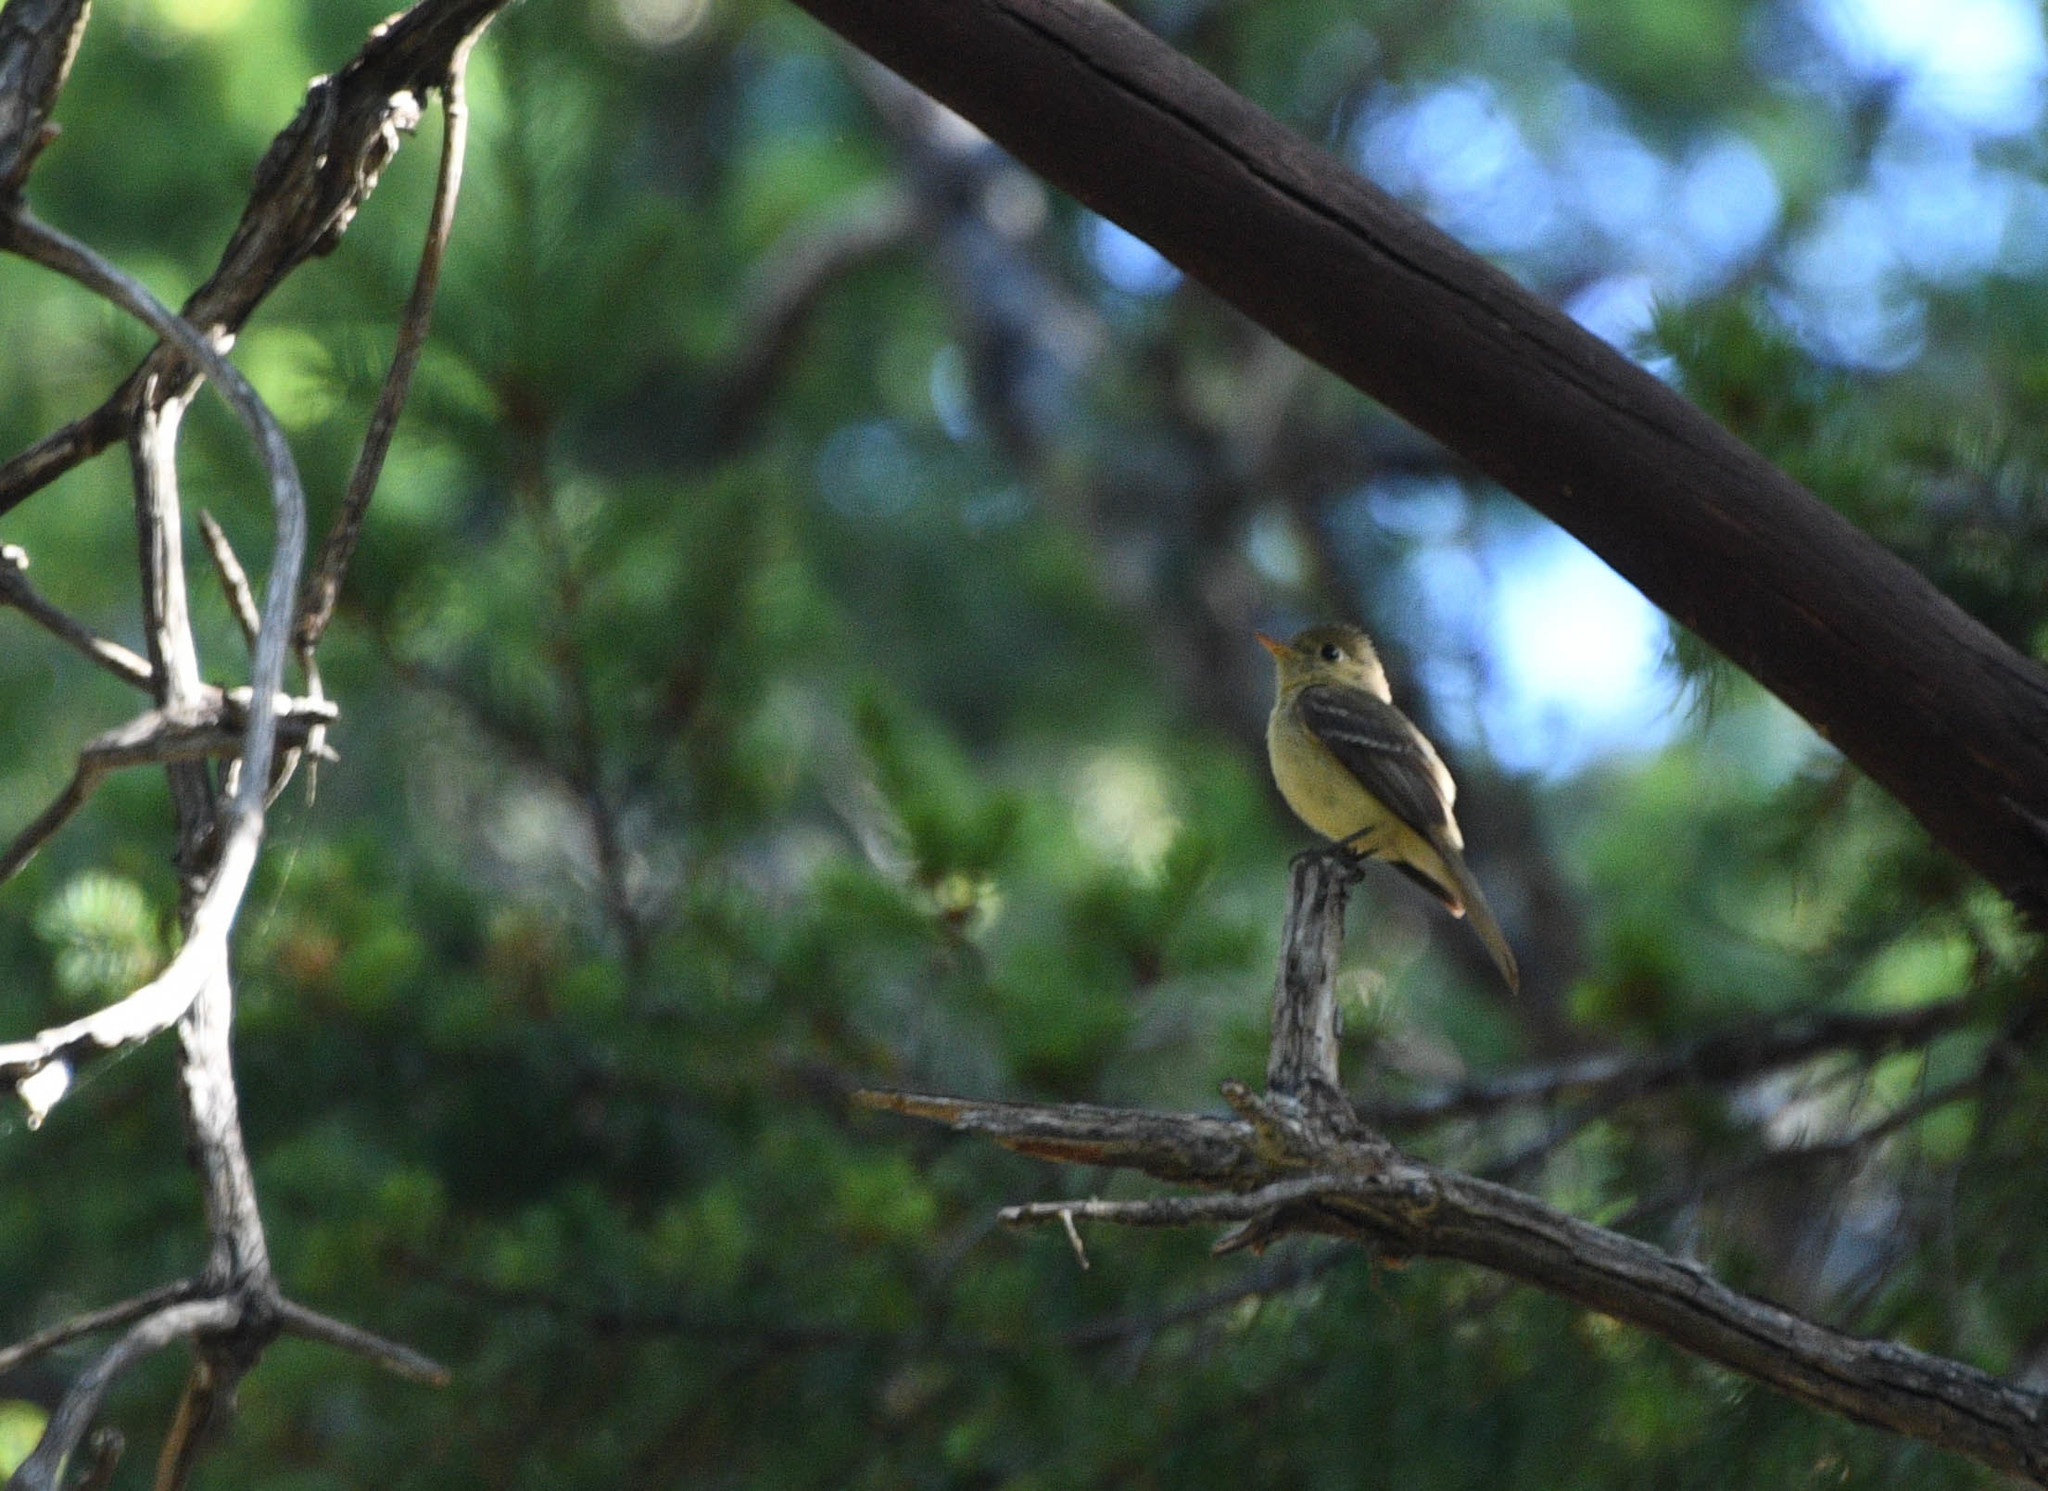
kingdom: Animalia
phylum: Chordata
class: Aves
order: Passeriformes
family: Tyrannidae
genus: Empidonax
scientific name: Empidonax difficilis
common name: Pacific-slope flycatcher
